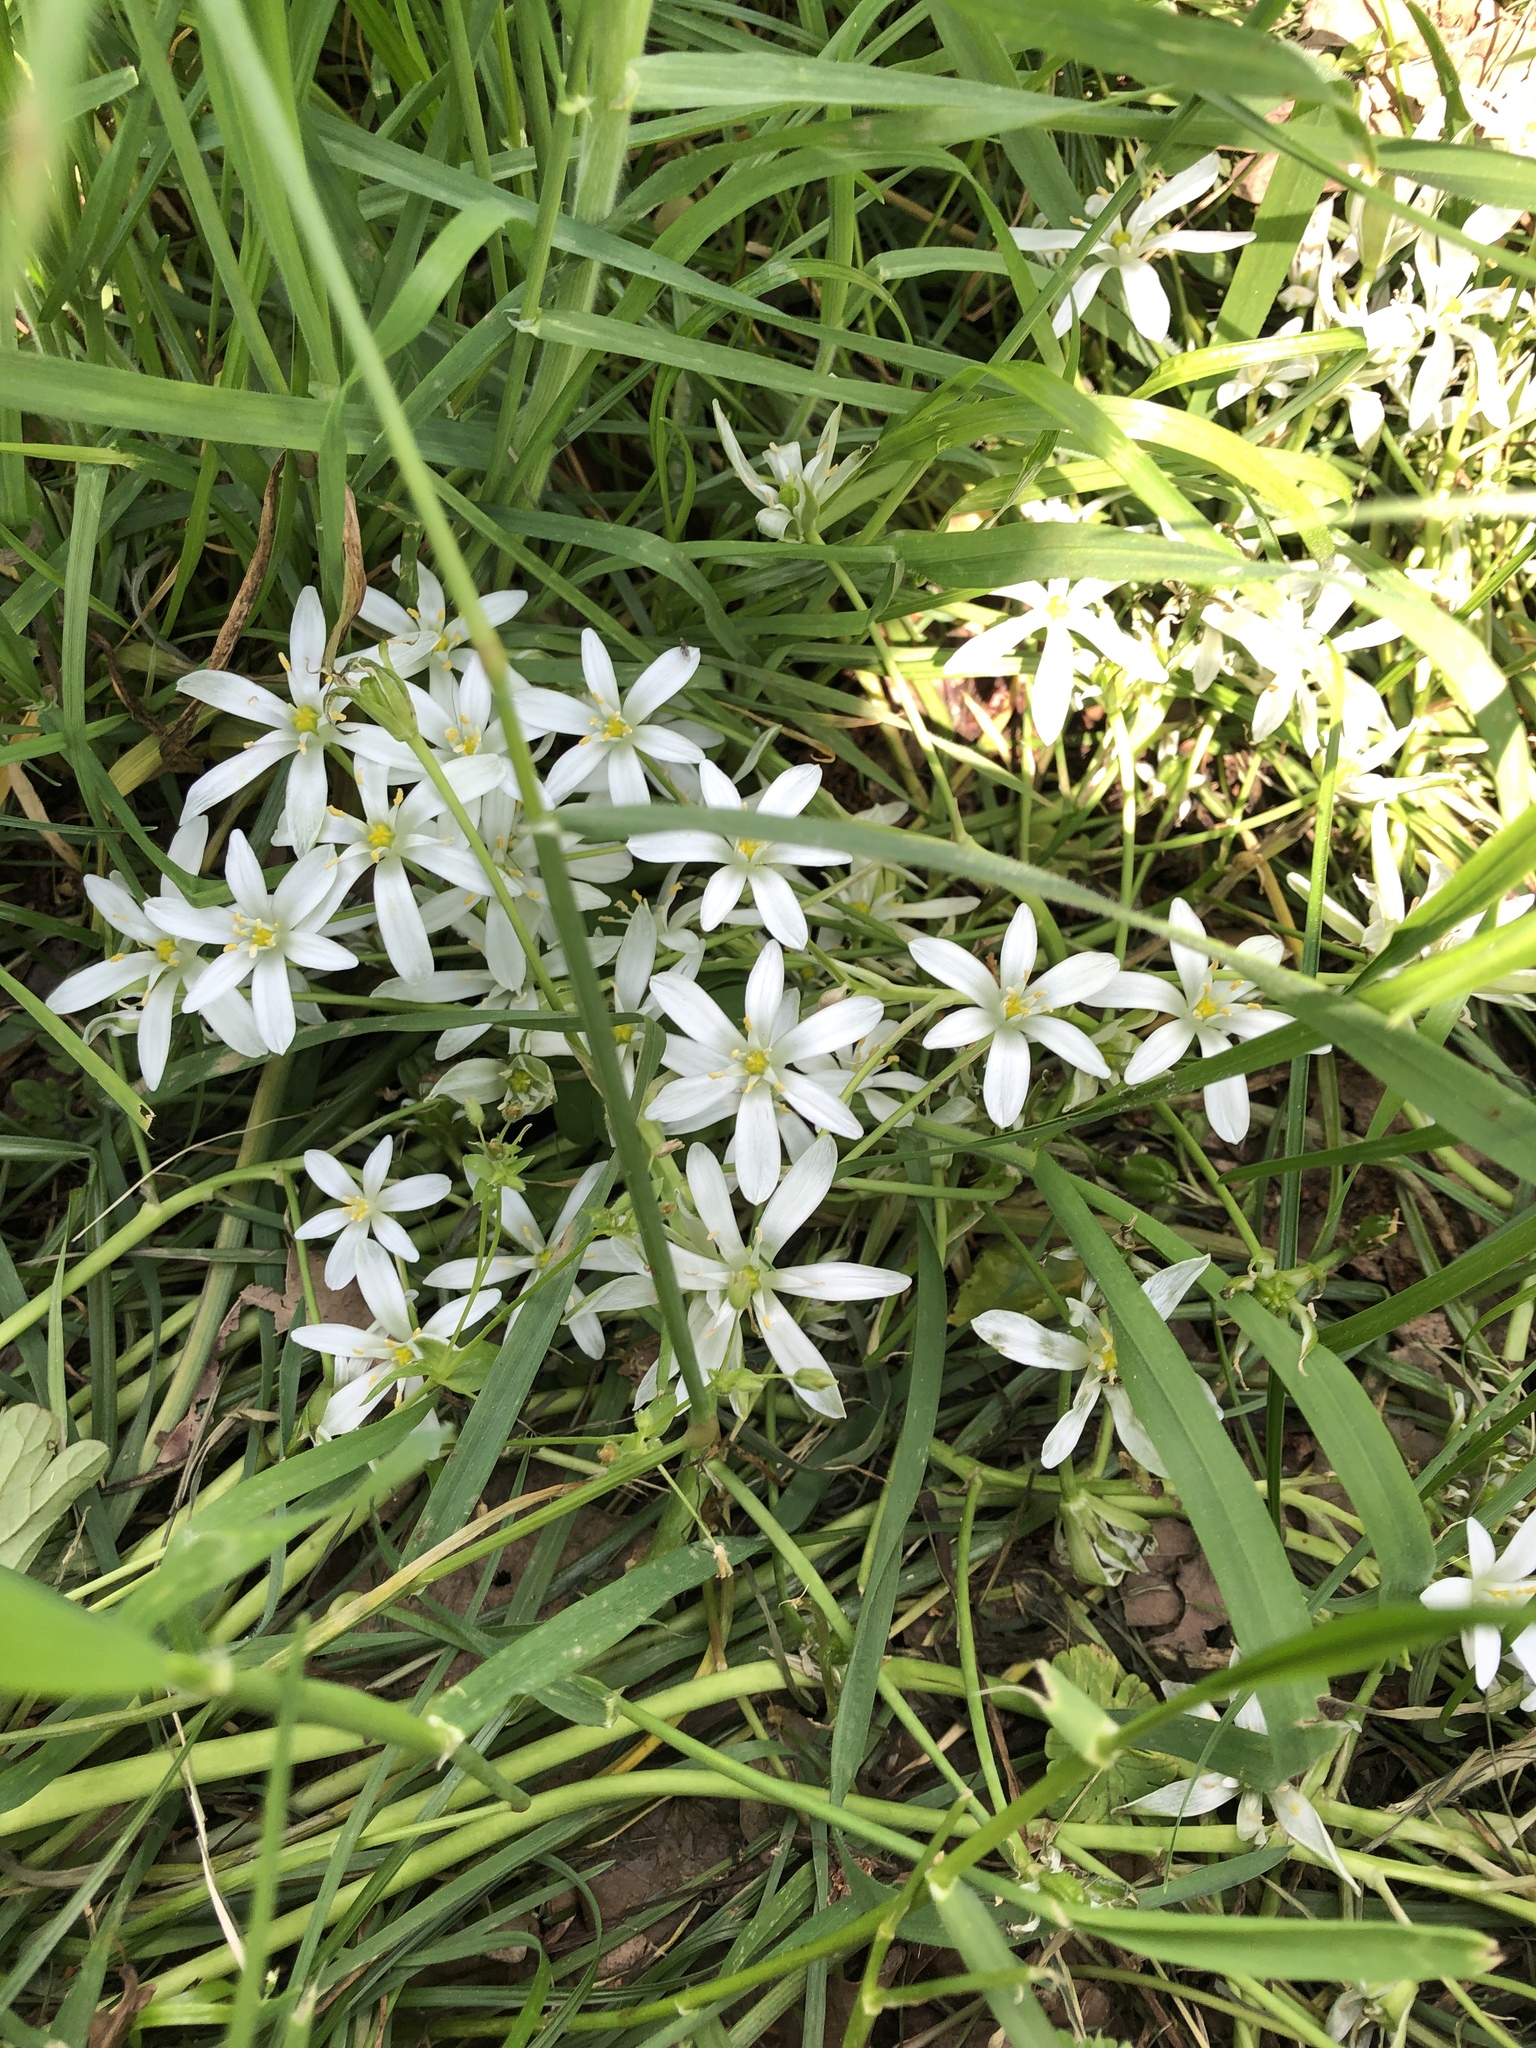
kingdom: Plantae
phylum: Tracheophyta
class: Liliopsida
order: Asparagales
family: Asparagaceae
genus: Ornithogalum
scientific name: Ornithogalum umbellatum
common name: Garden star-of-bethlehem
